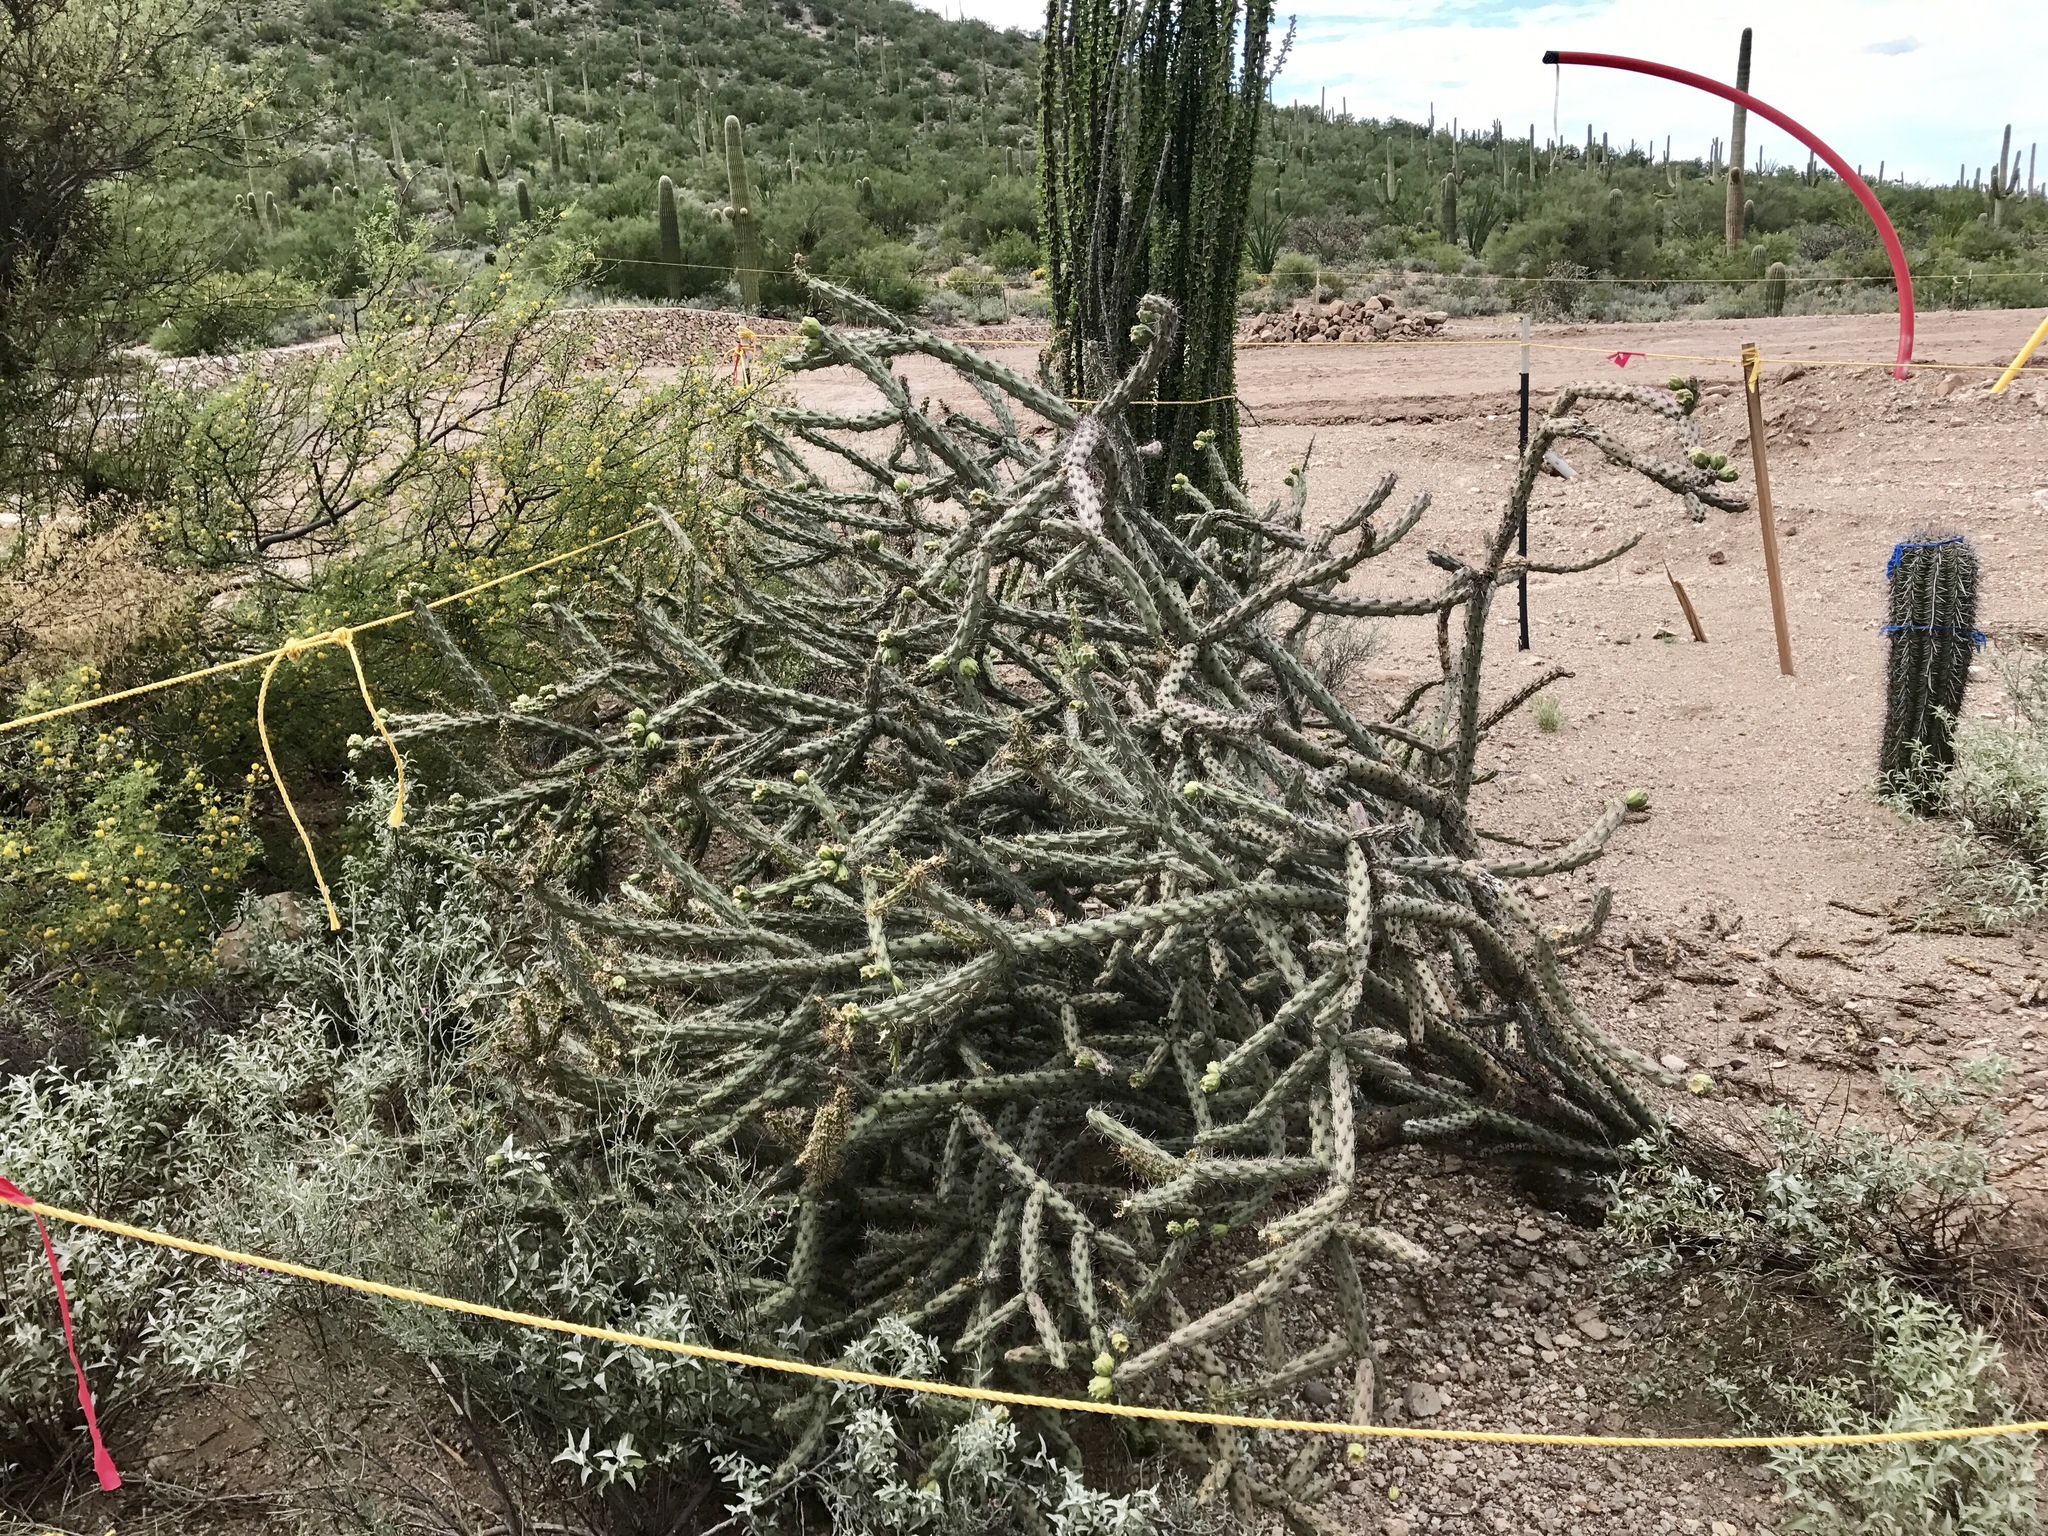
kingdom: Plantae
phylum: Tracheophyta
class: Magnoliopsida
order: Caryophyllales
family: Cactaceae
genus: Cylindropuntia
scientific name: Cylindropuntia thurberi
